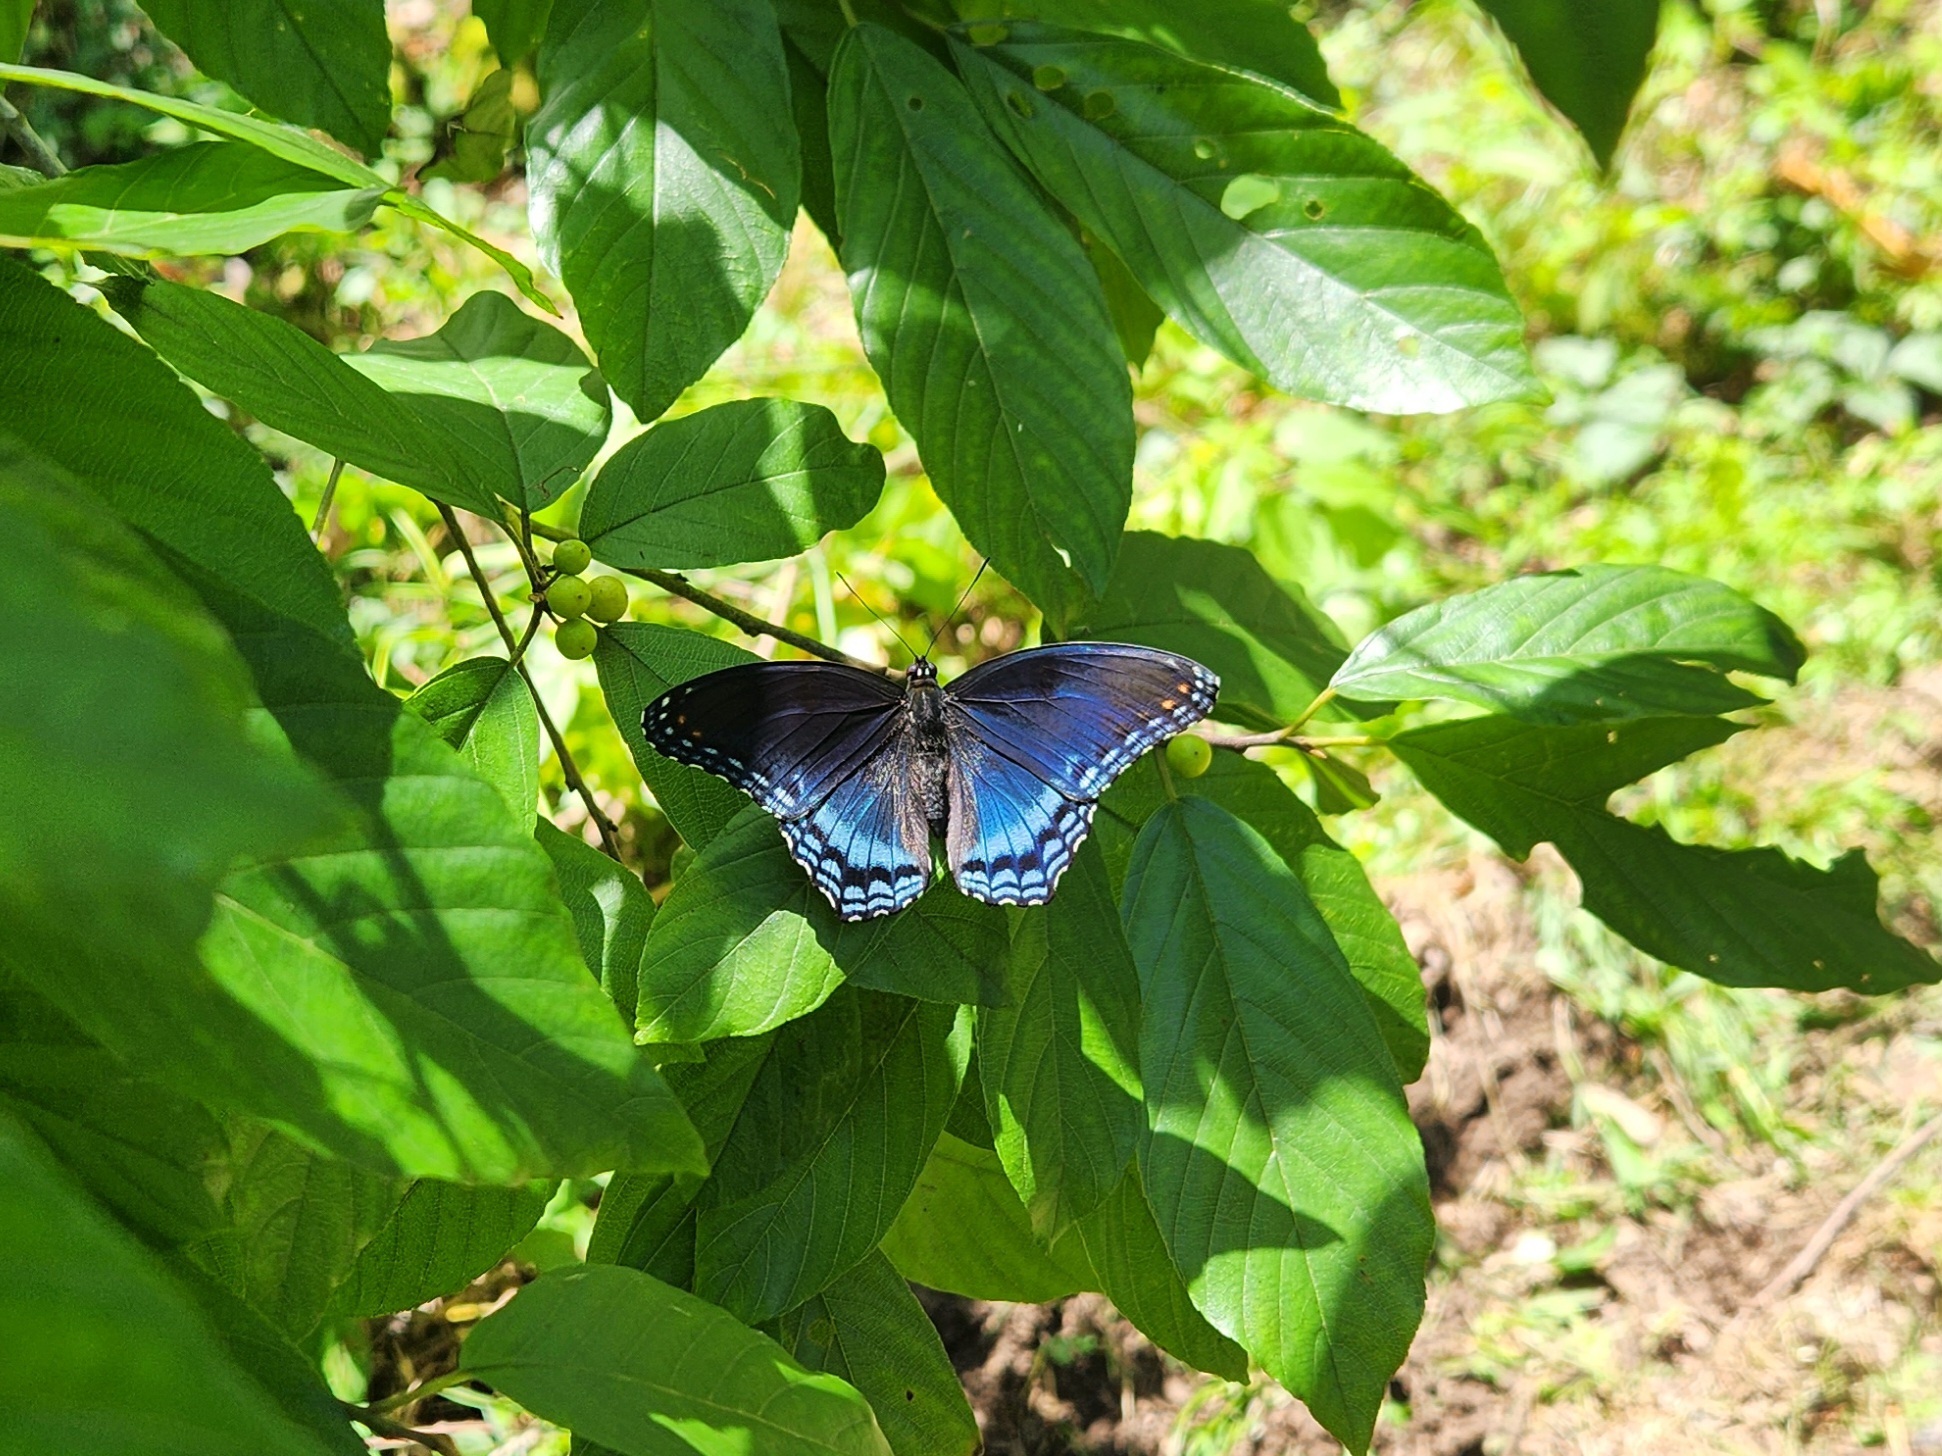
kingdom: Animalia
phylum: Arthropoda
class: Insecta
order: Lepidoptera
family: Nymphalidae
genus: Limenitis
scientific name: Limenitis arthemis
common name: Red-spotted admiral
